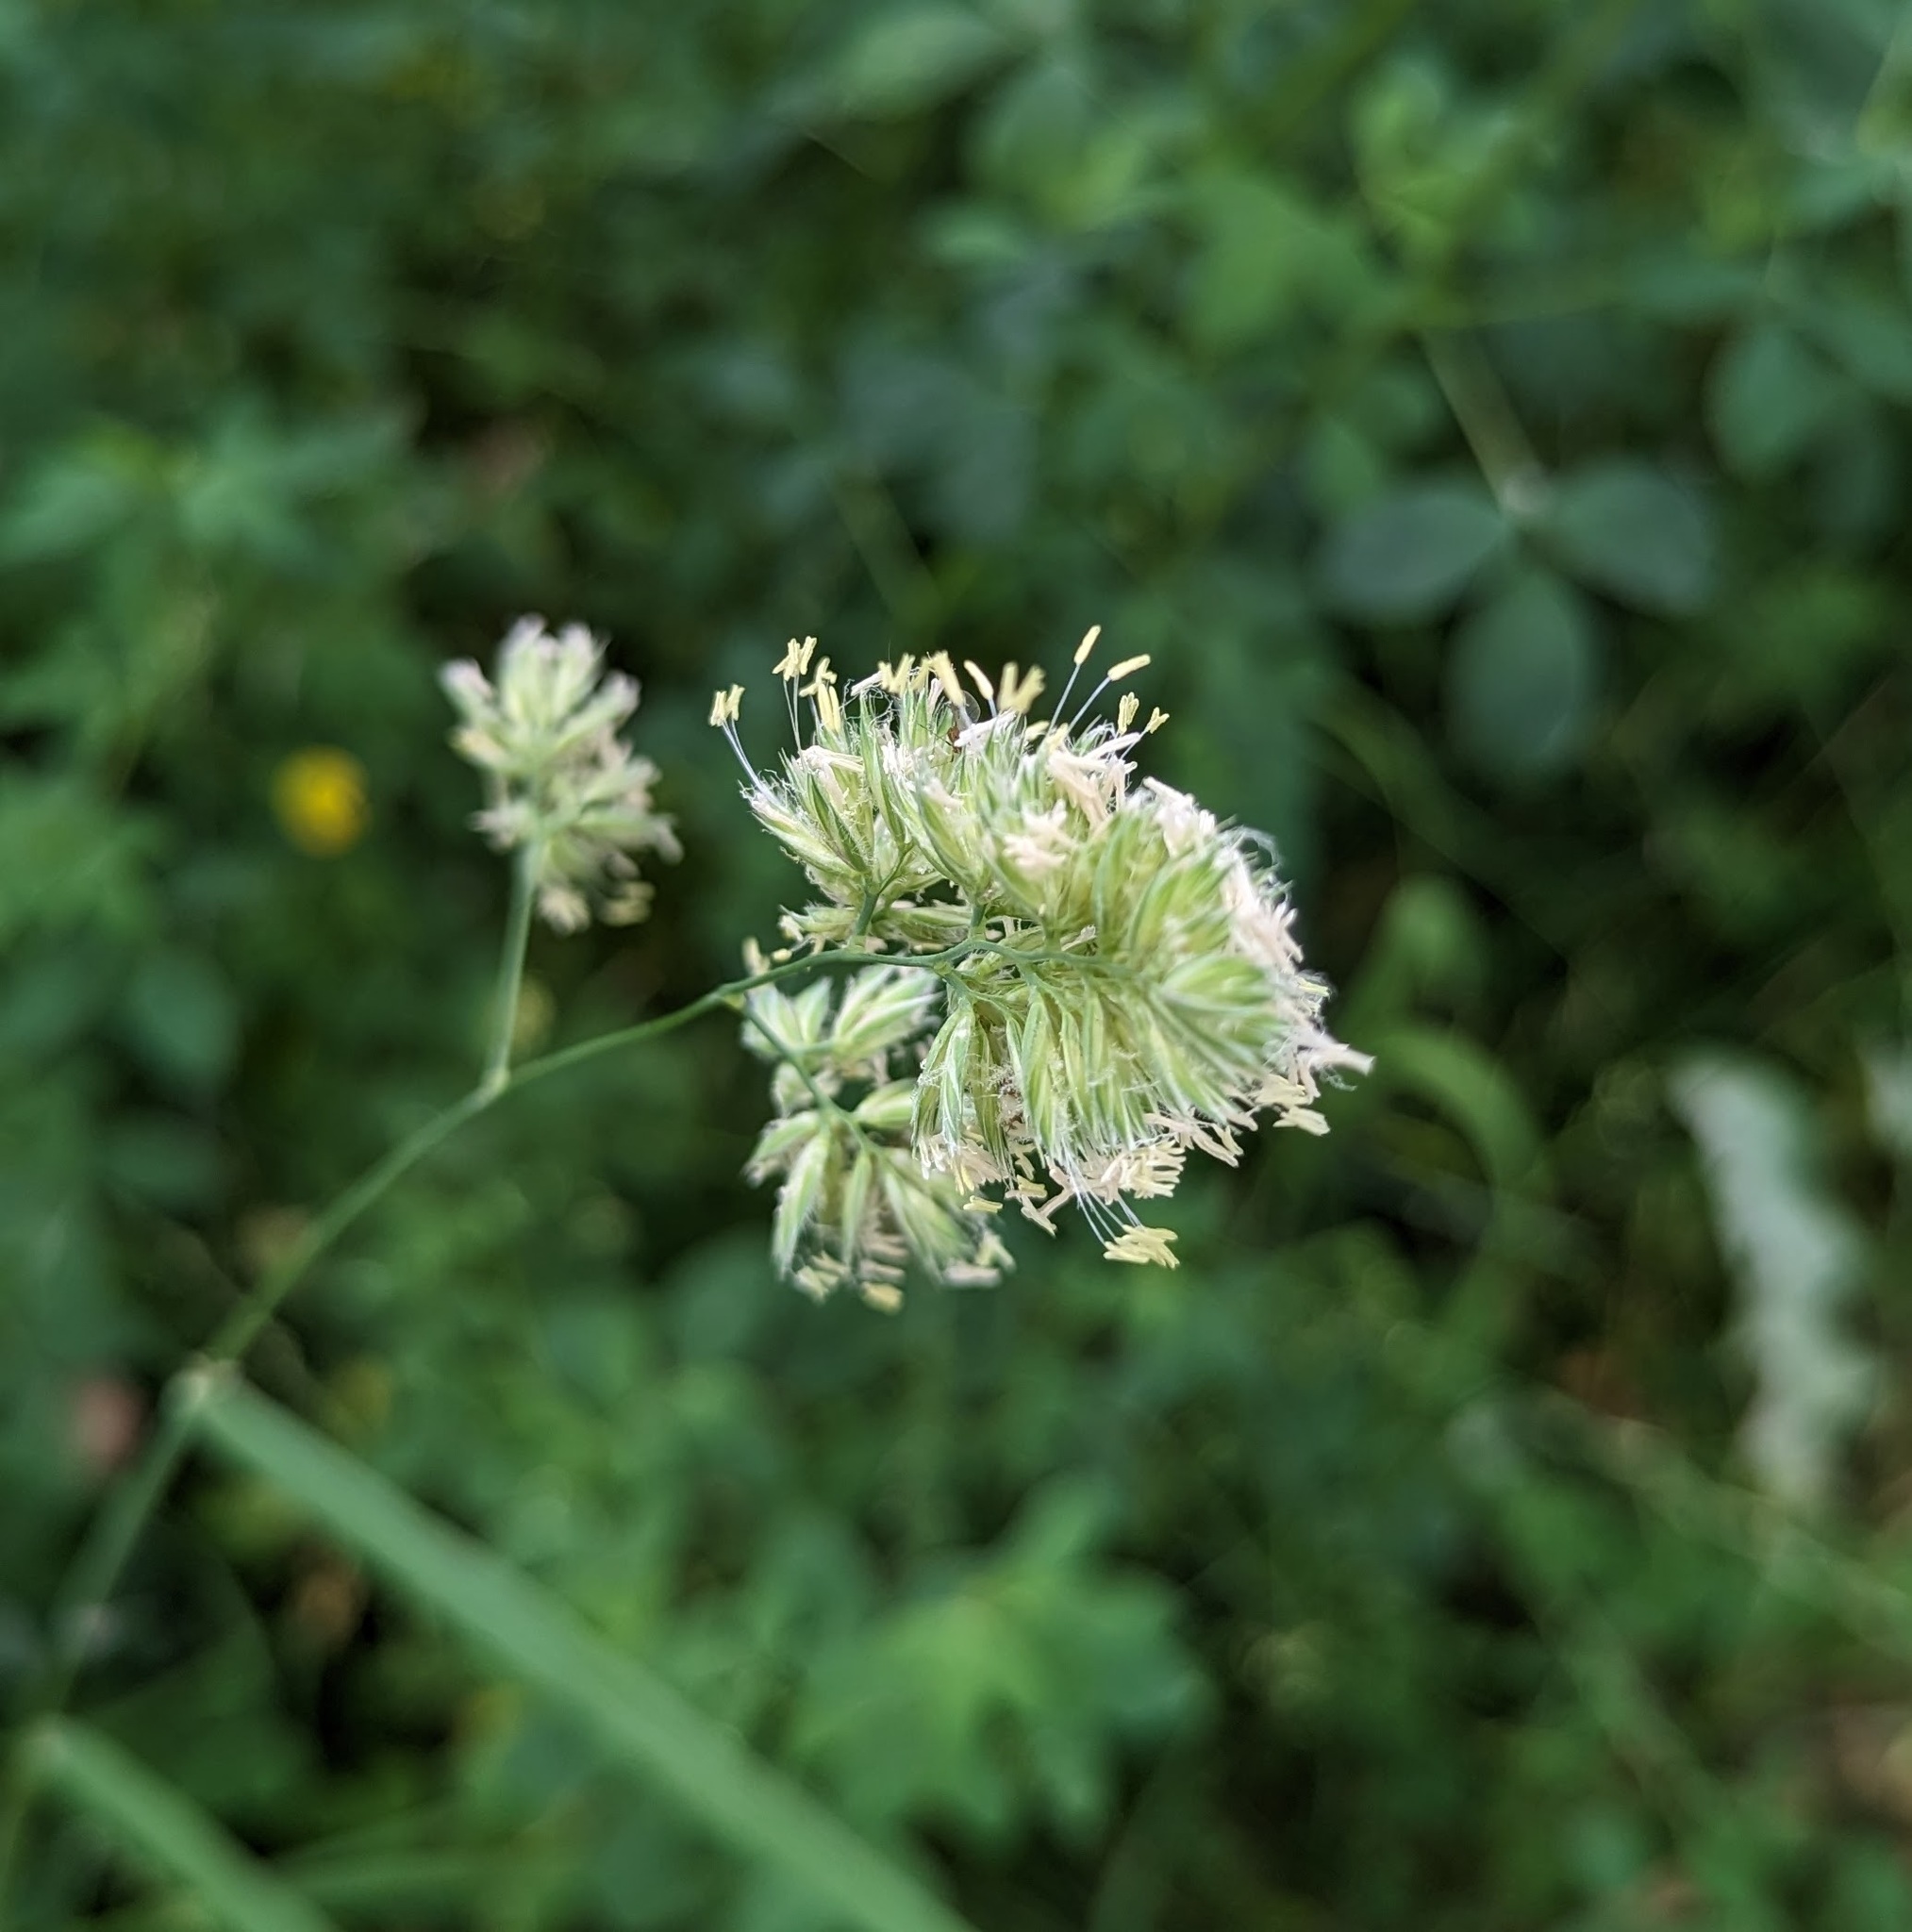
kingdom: Plantae
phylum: Tracheophyta
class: Liliopsida
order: Poales
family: Poaceae
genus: Dactylis
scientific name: Dactylis glomerata
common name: Orchardgrass
